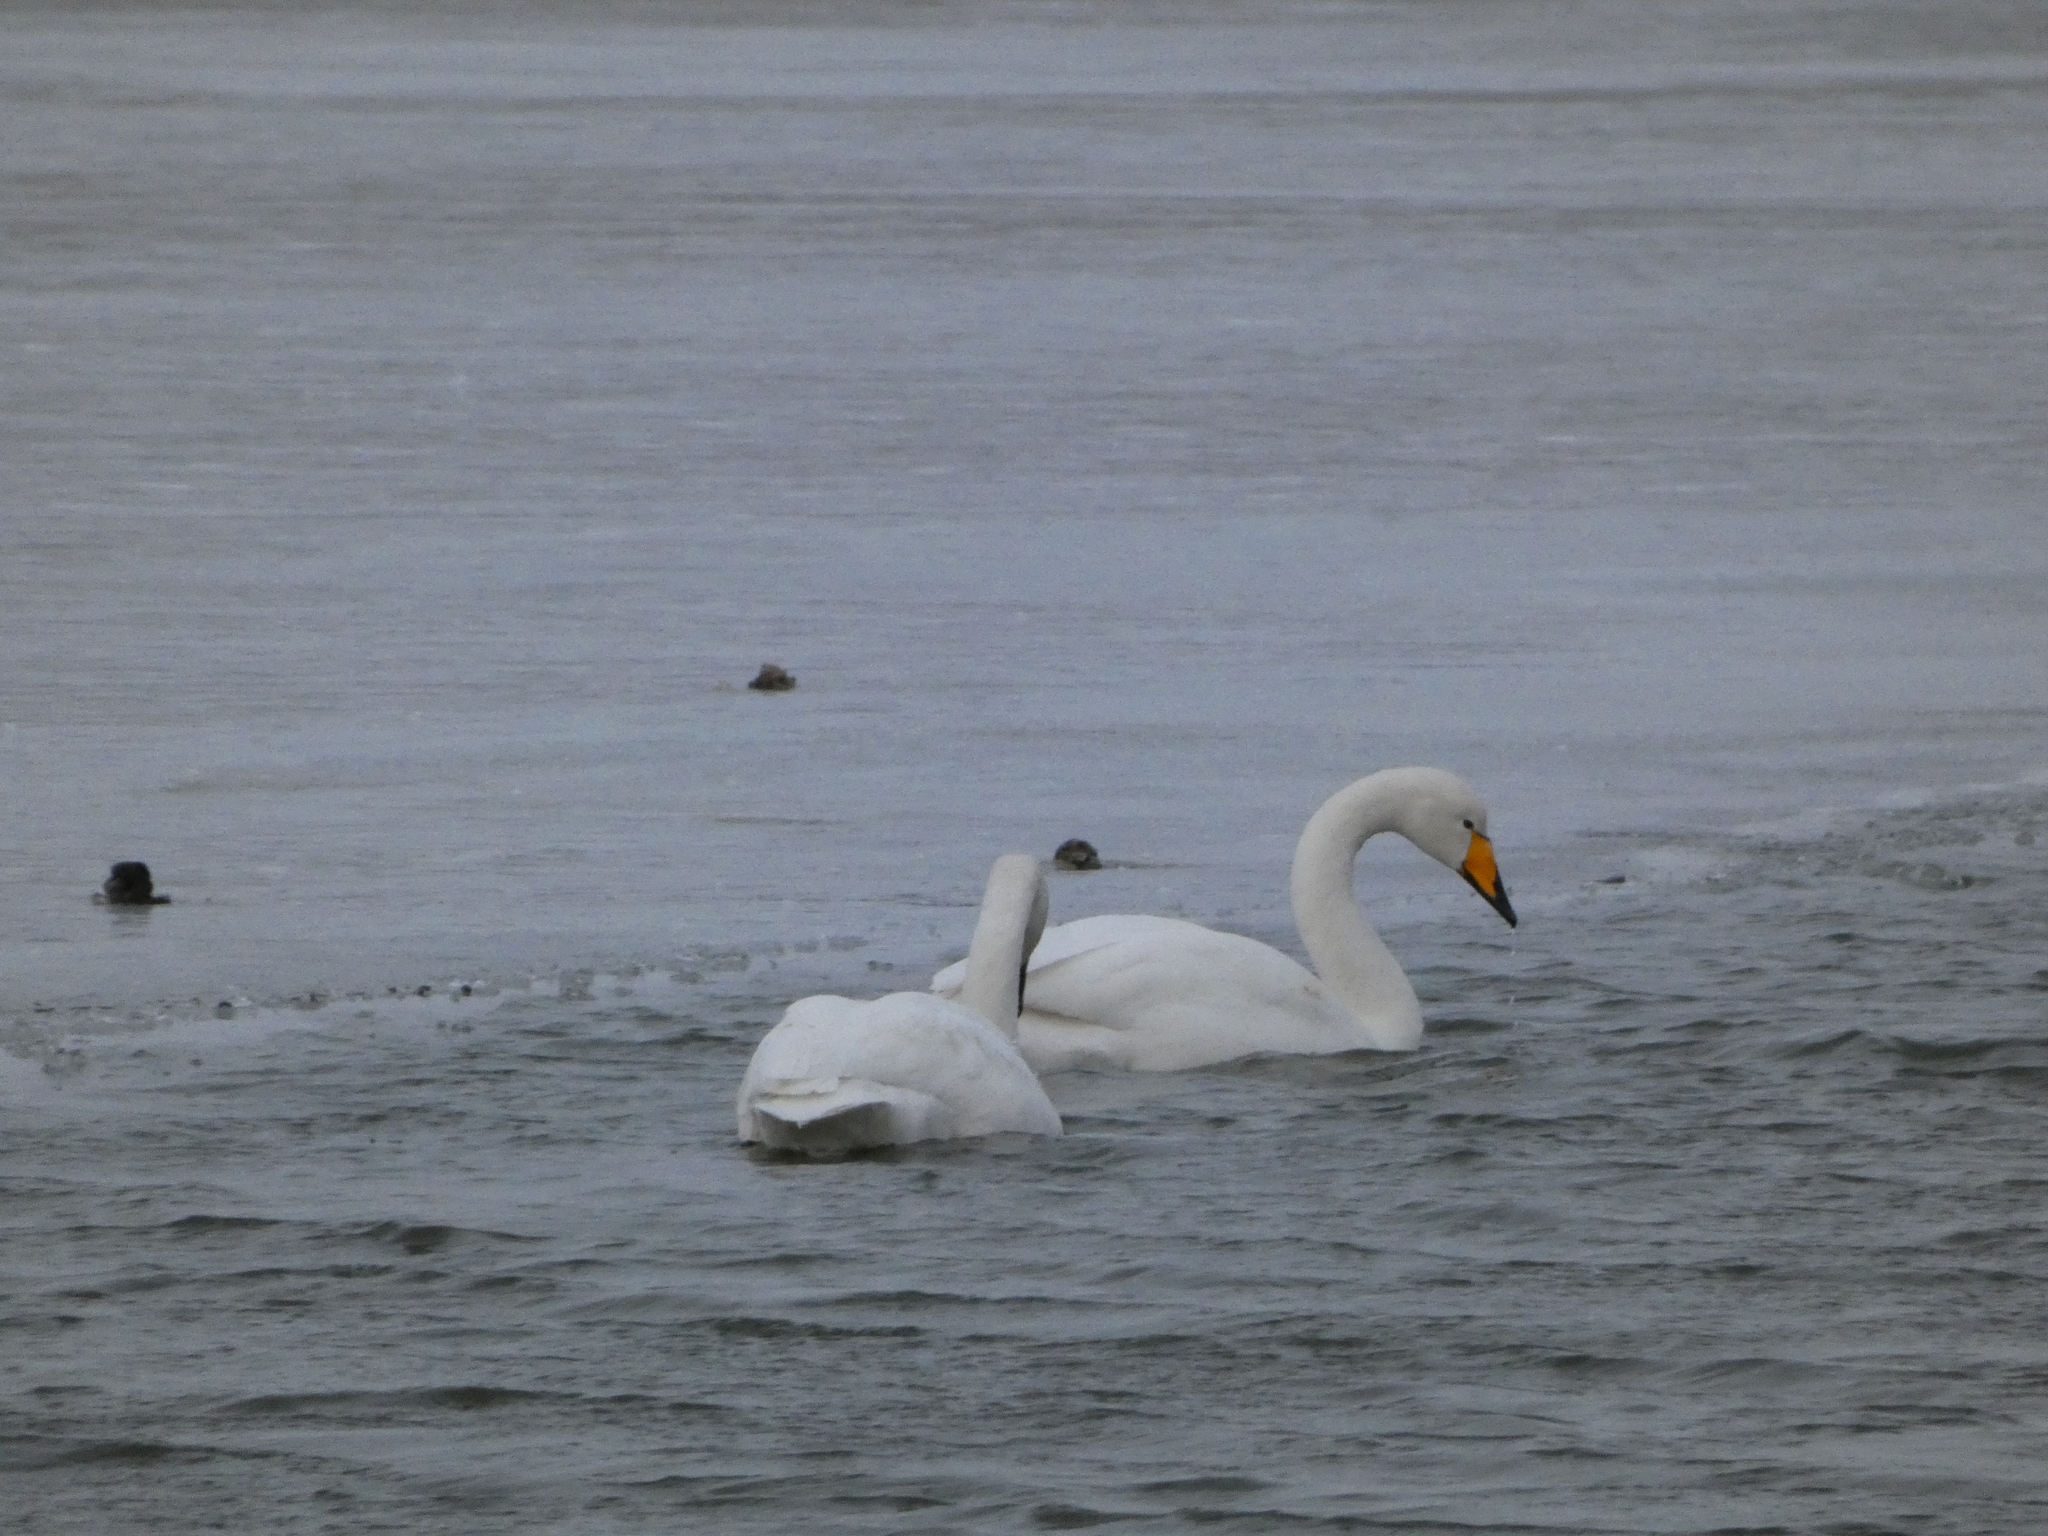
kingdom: Animalia
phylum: Chordata
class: Aves
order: Anseriformes
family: Anatidae
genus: Cygnus
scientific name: Cygnus cygnus
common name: Whooper swan
